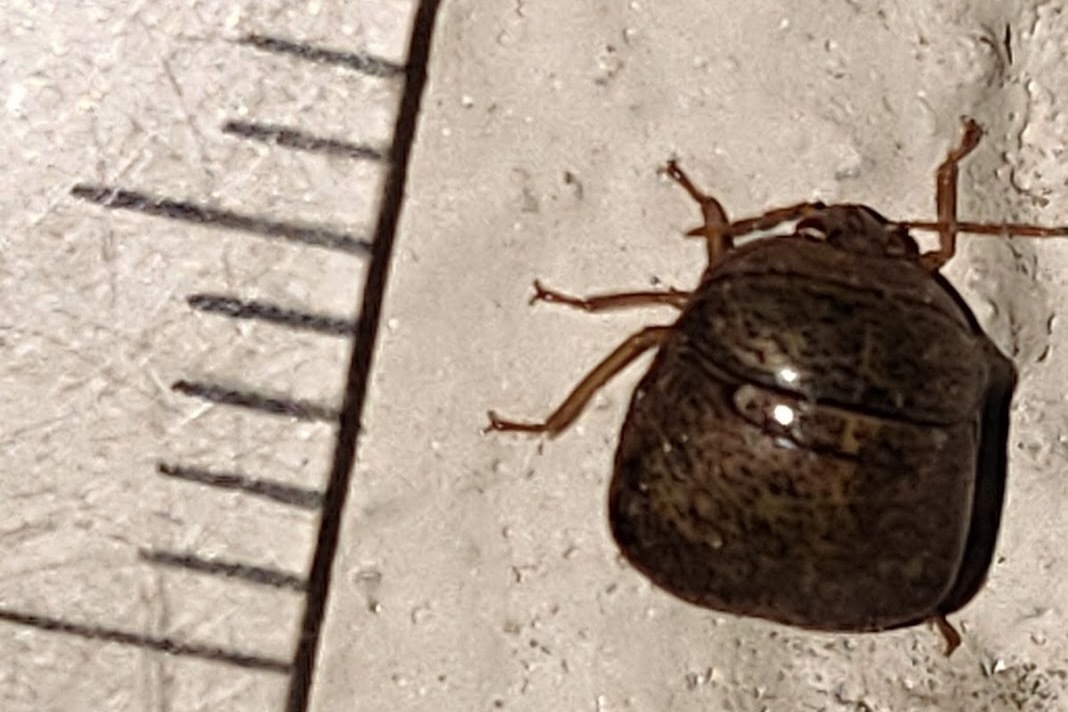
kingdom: Animalia
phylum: Arthropoda
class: Insecta
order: Hemiptera
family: Plataspidae
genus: Megacopta
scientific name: Megacopta punctatissima
